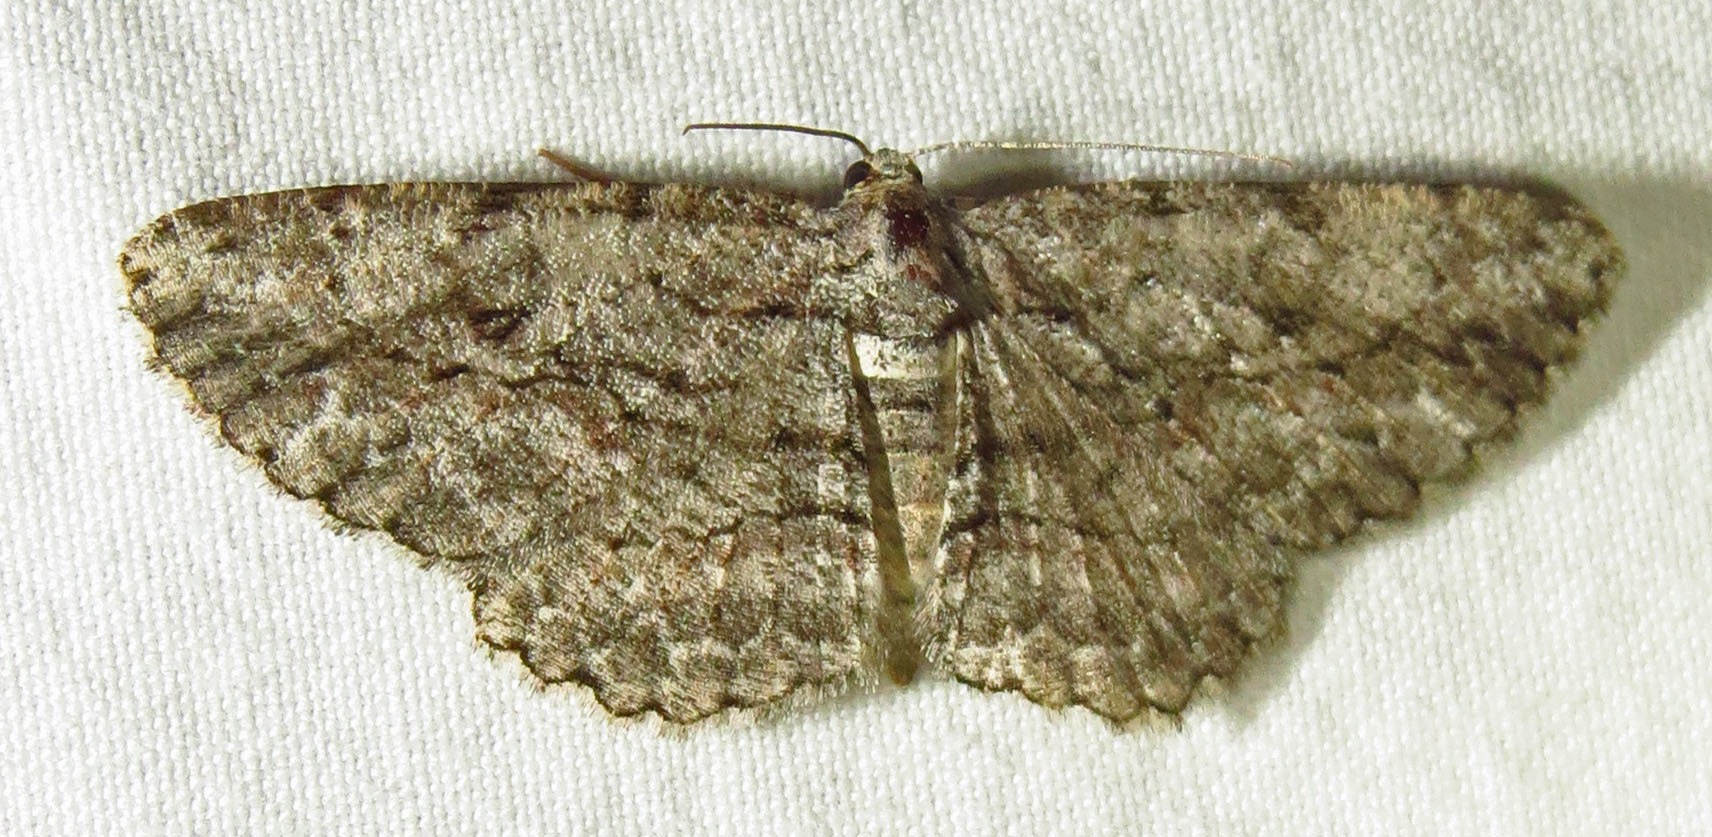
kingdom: Animalia
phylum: Arthropoda
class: Insecta
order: Lepidoptera
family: Geometridae
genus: Anavitrinella
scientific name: Anavitrinella pampinaria
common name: Common gray
